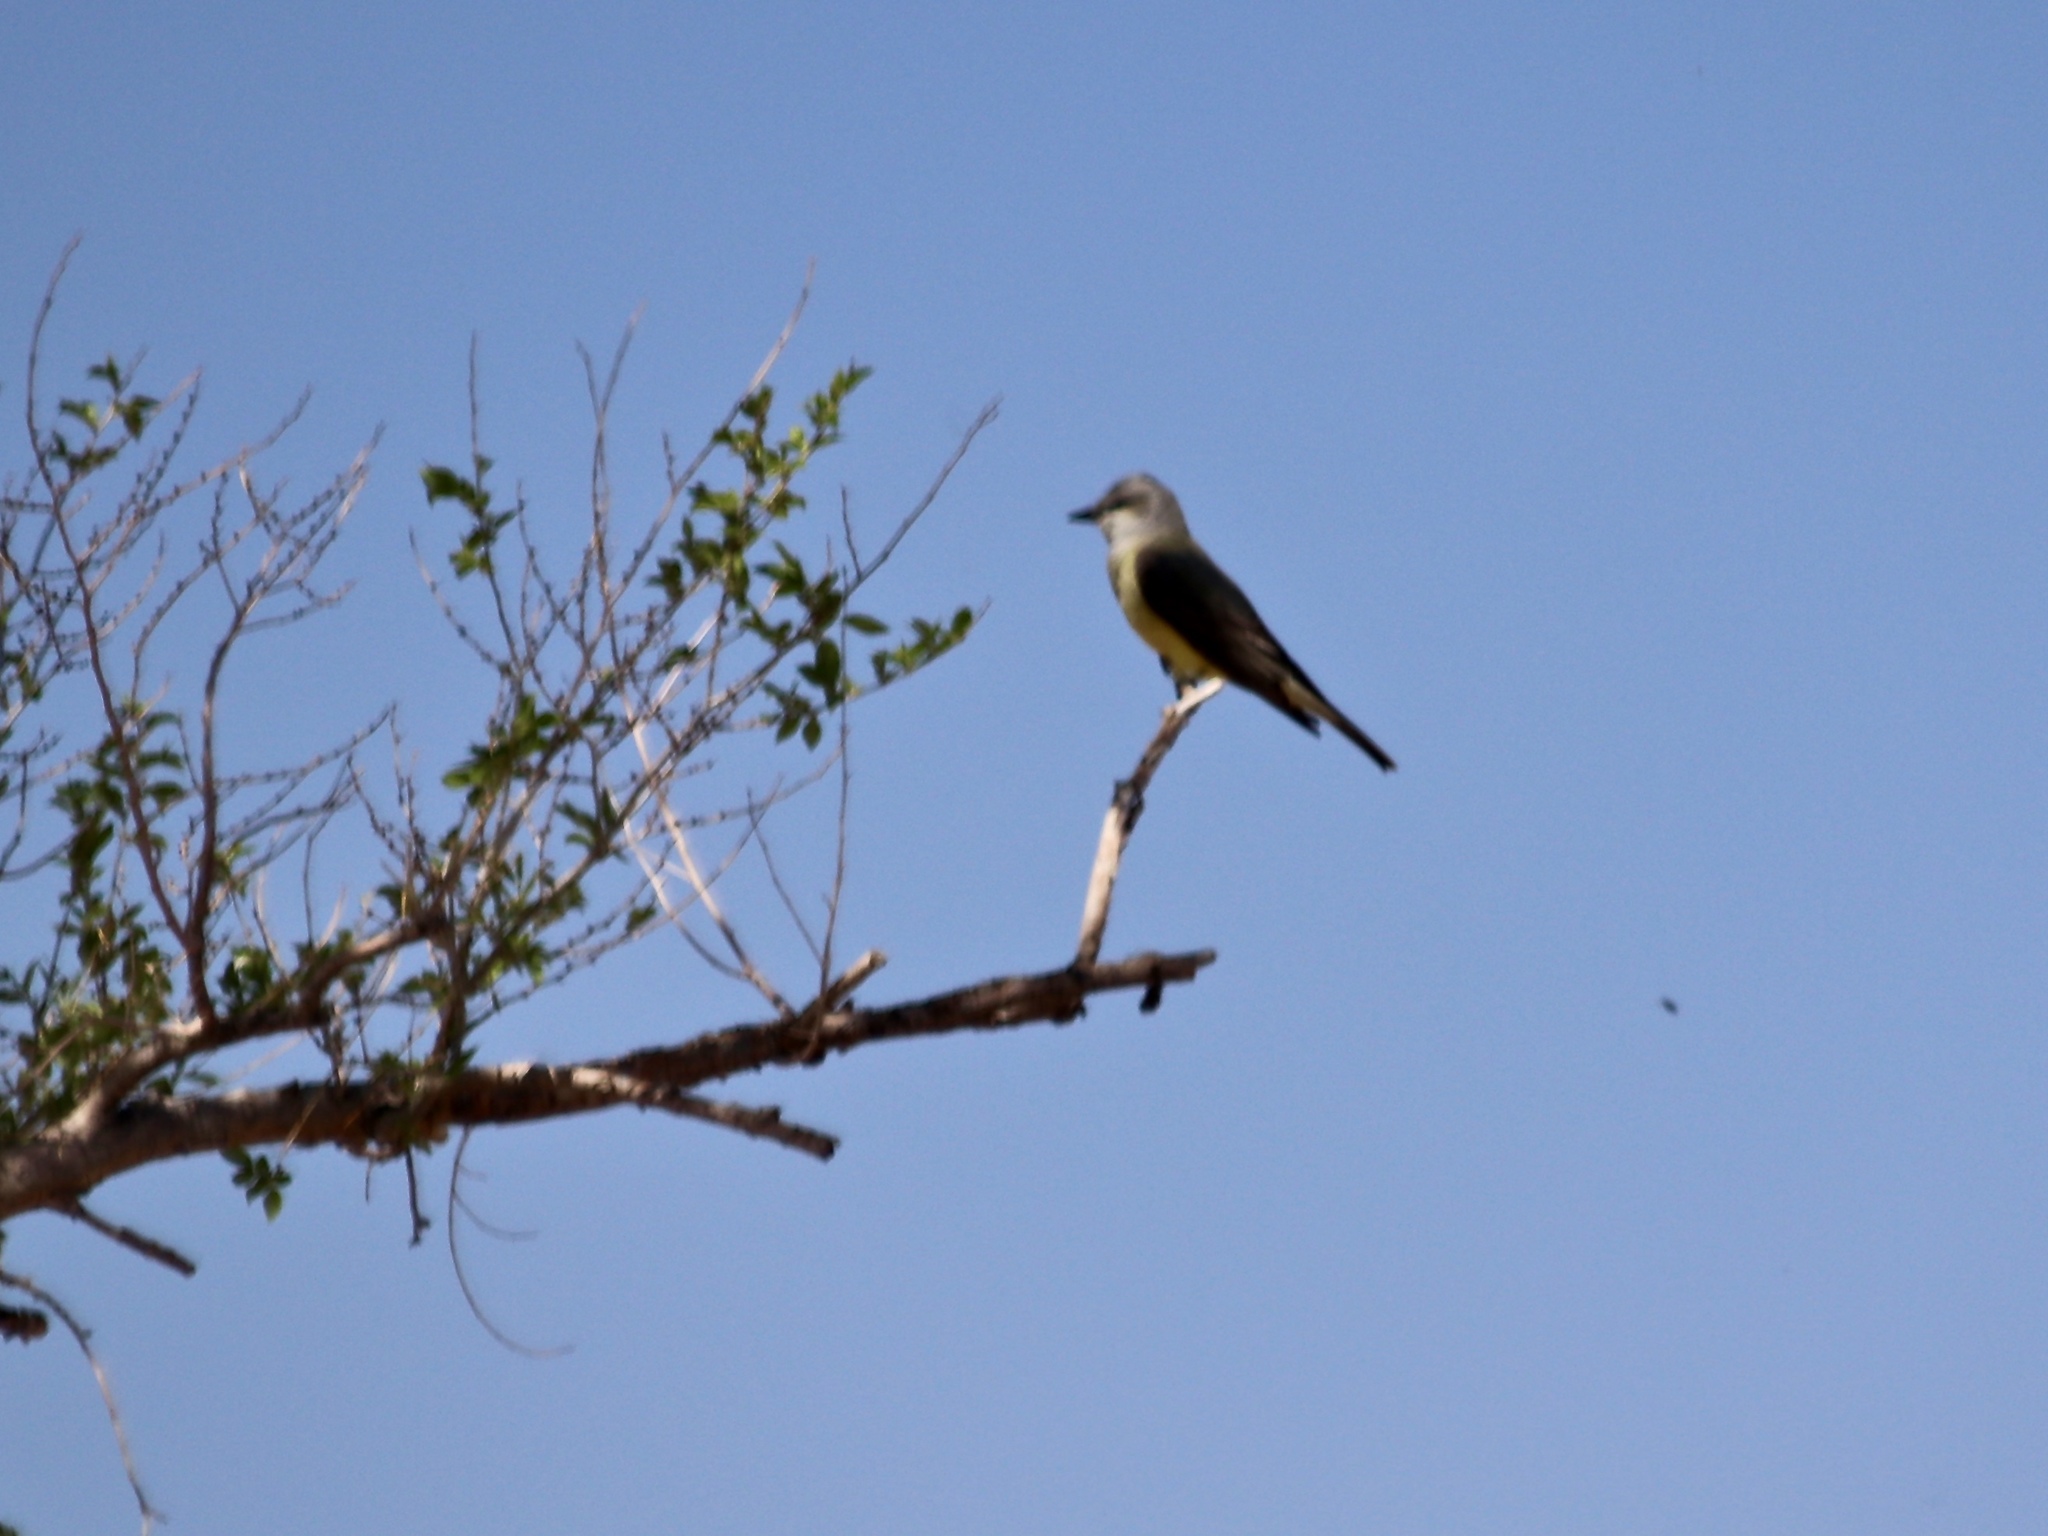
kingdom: Animalia
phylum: Chordata
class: Aves
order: Passeriformes
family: Tyrannidae
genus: Tyrannus
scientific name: Tyrannus verticalis
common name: Western kingbird
